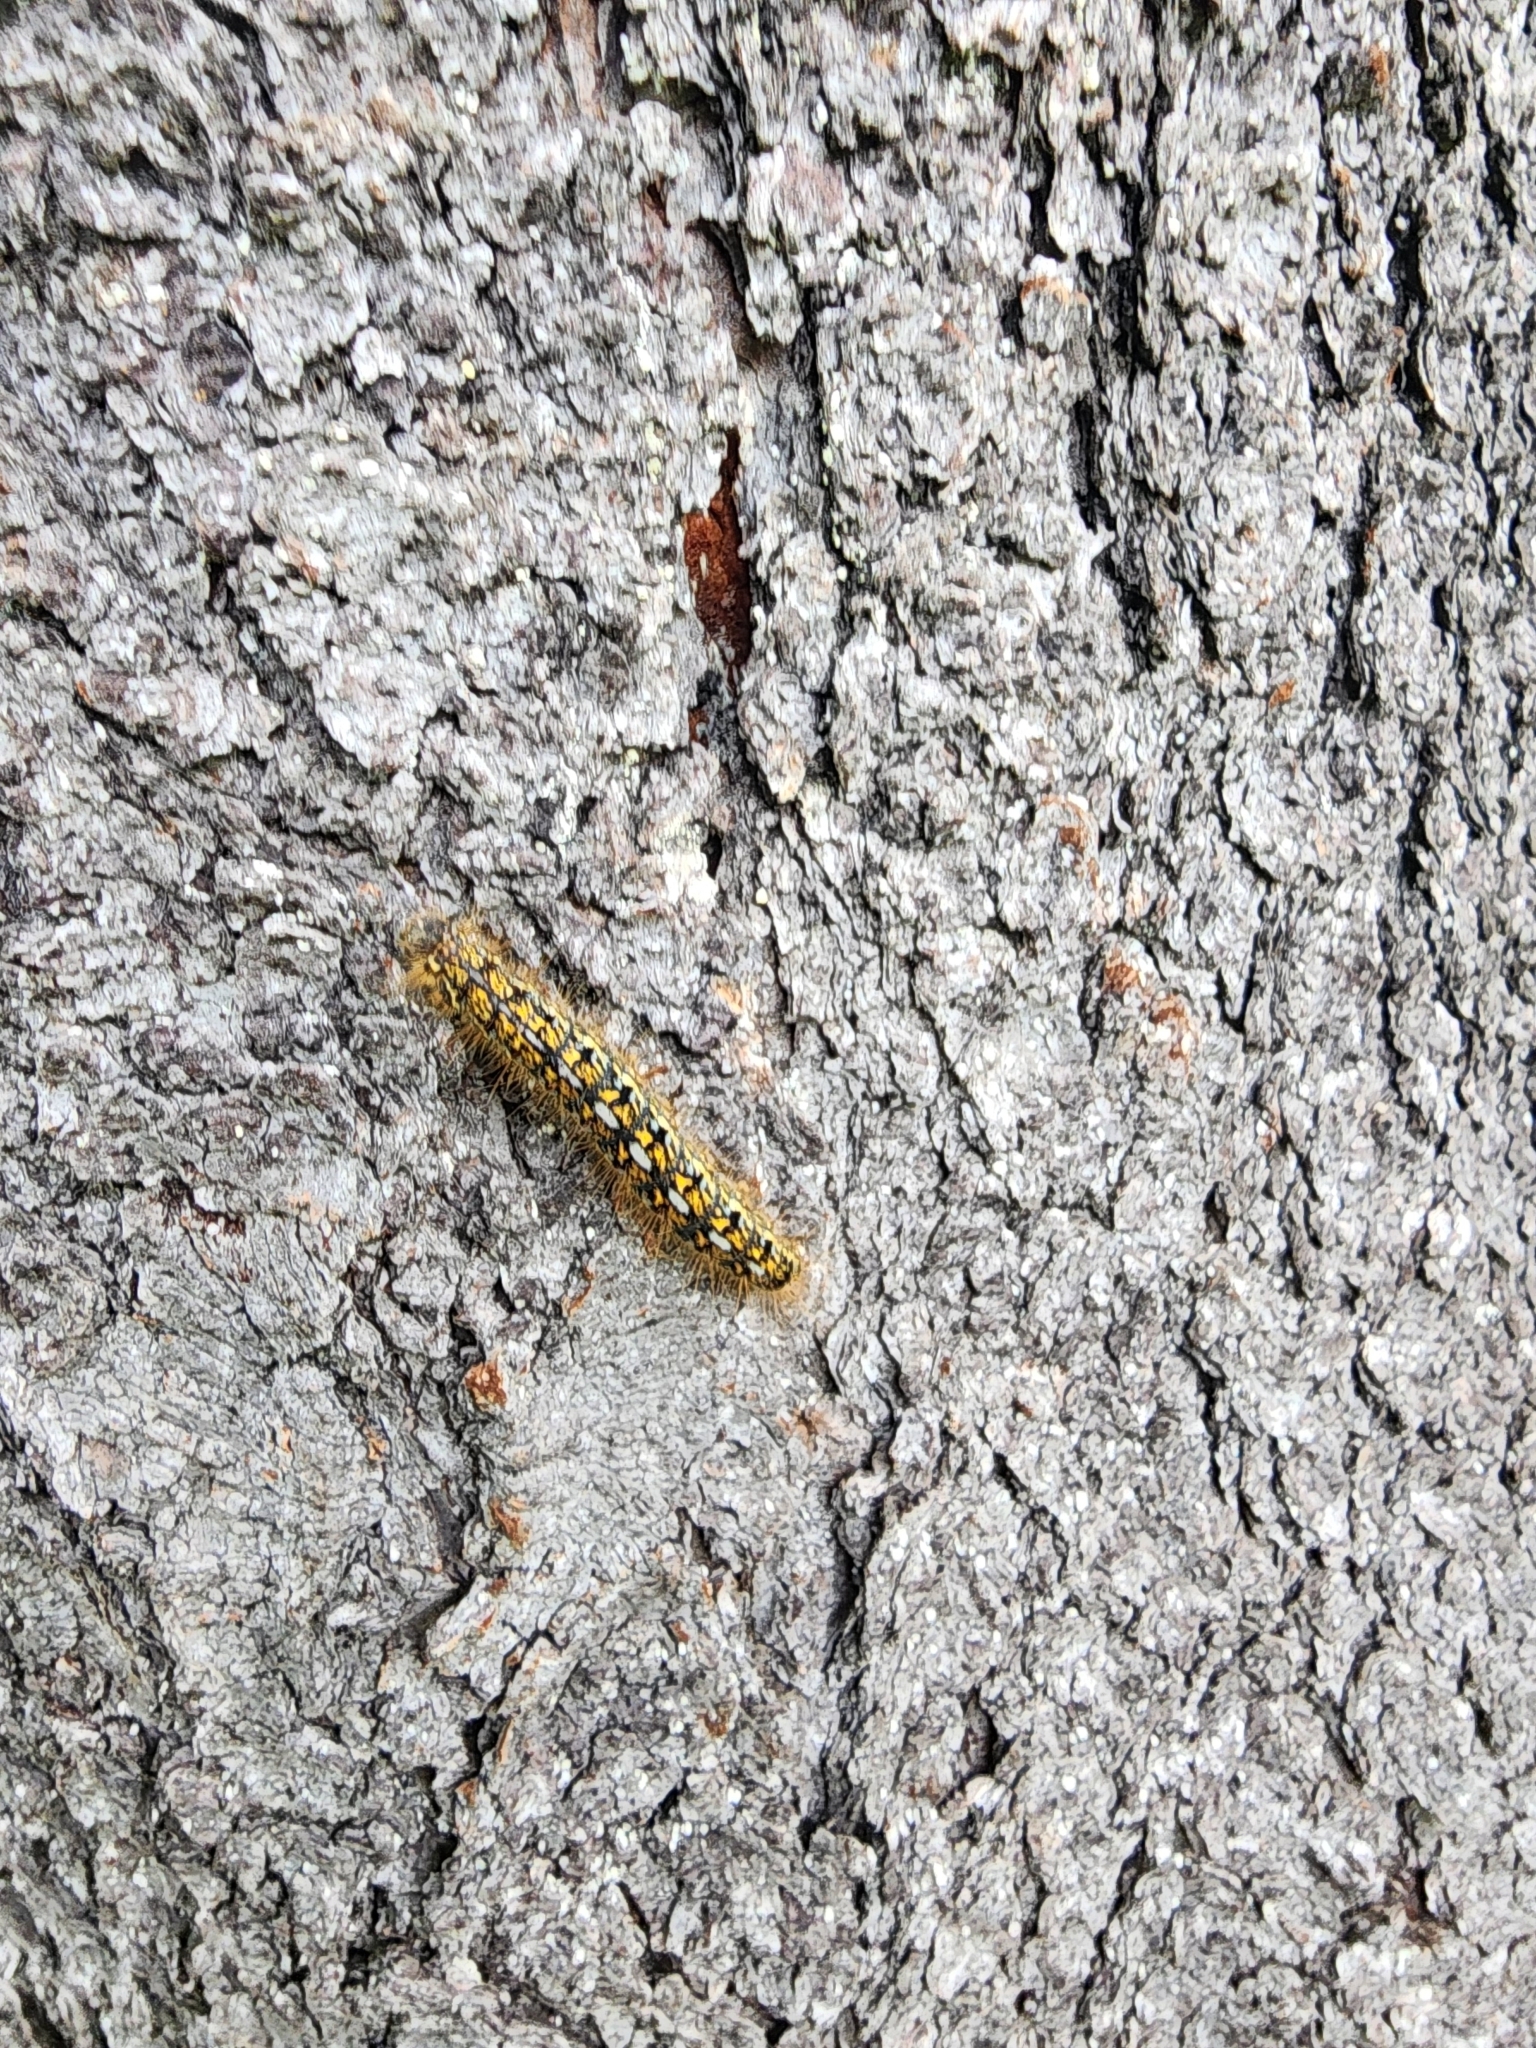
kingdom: Animalia
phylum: Arthropoda
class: Insecta
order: Lepidoptera
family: Lasiocampidae
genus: Malacosoma
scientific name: Malacosoma californica
